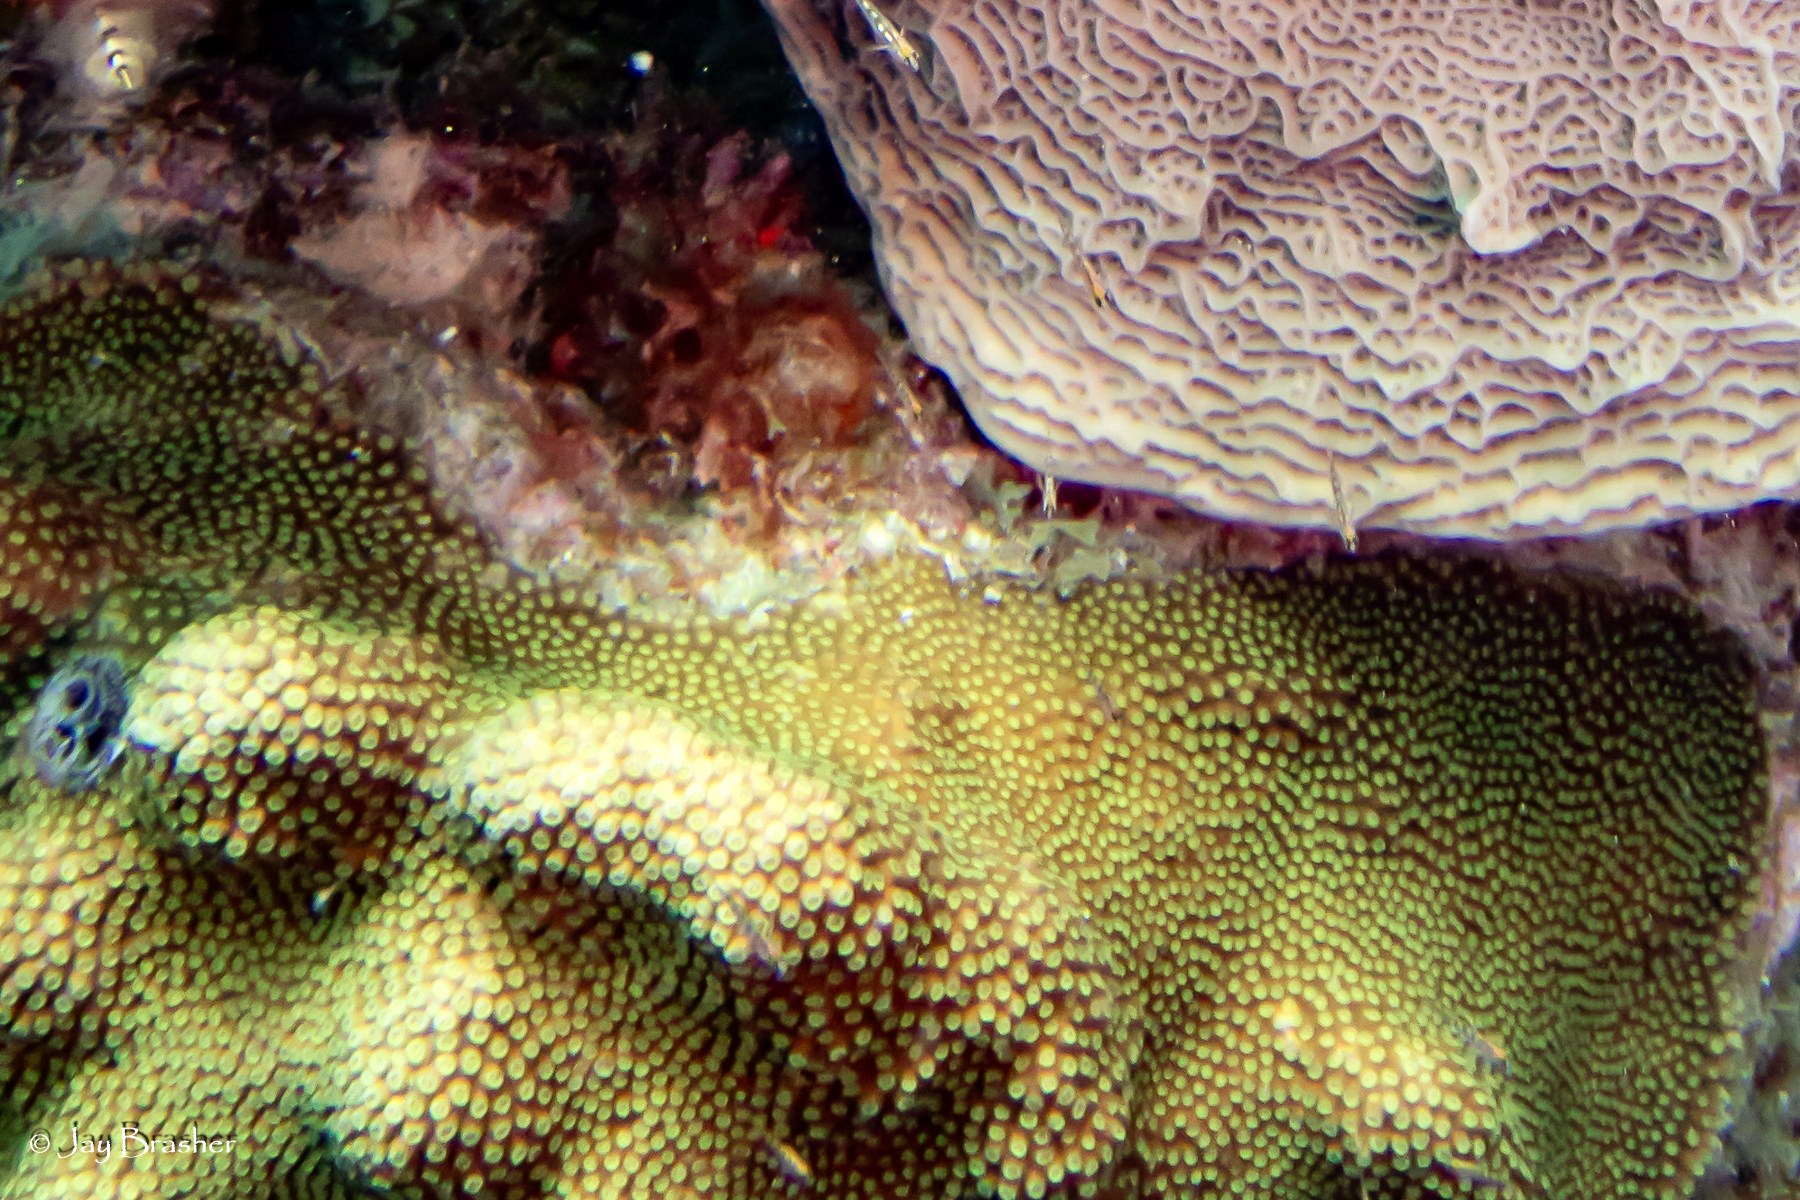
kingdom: Animalia
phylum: Cnidaria
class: Anthozoa
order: Scleractinia
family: Merulinidae
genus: Orbicella
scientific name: Orbicella faveolata
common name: Mountainous star coral
